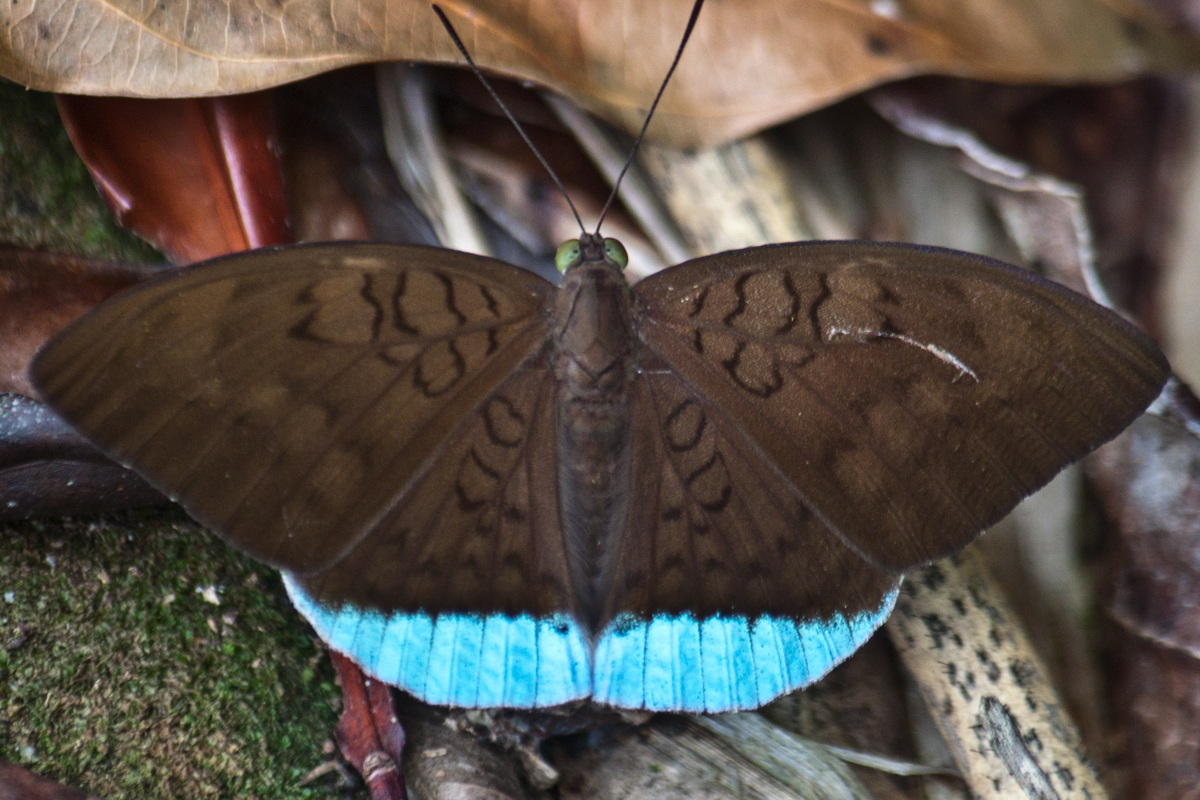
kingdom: Animalia
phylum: Arthropoda
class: Insecta
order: Lepidoptera
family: Nymphalidae
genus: Tanaecia
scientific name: Tanaecia julii
